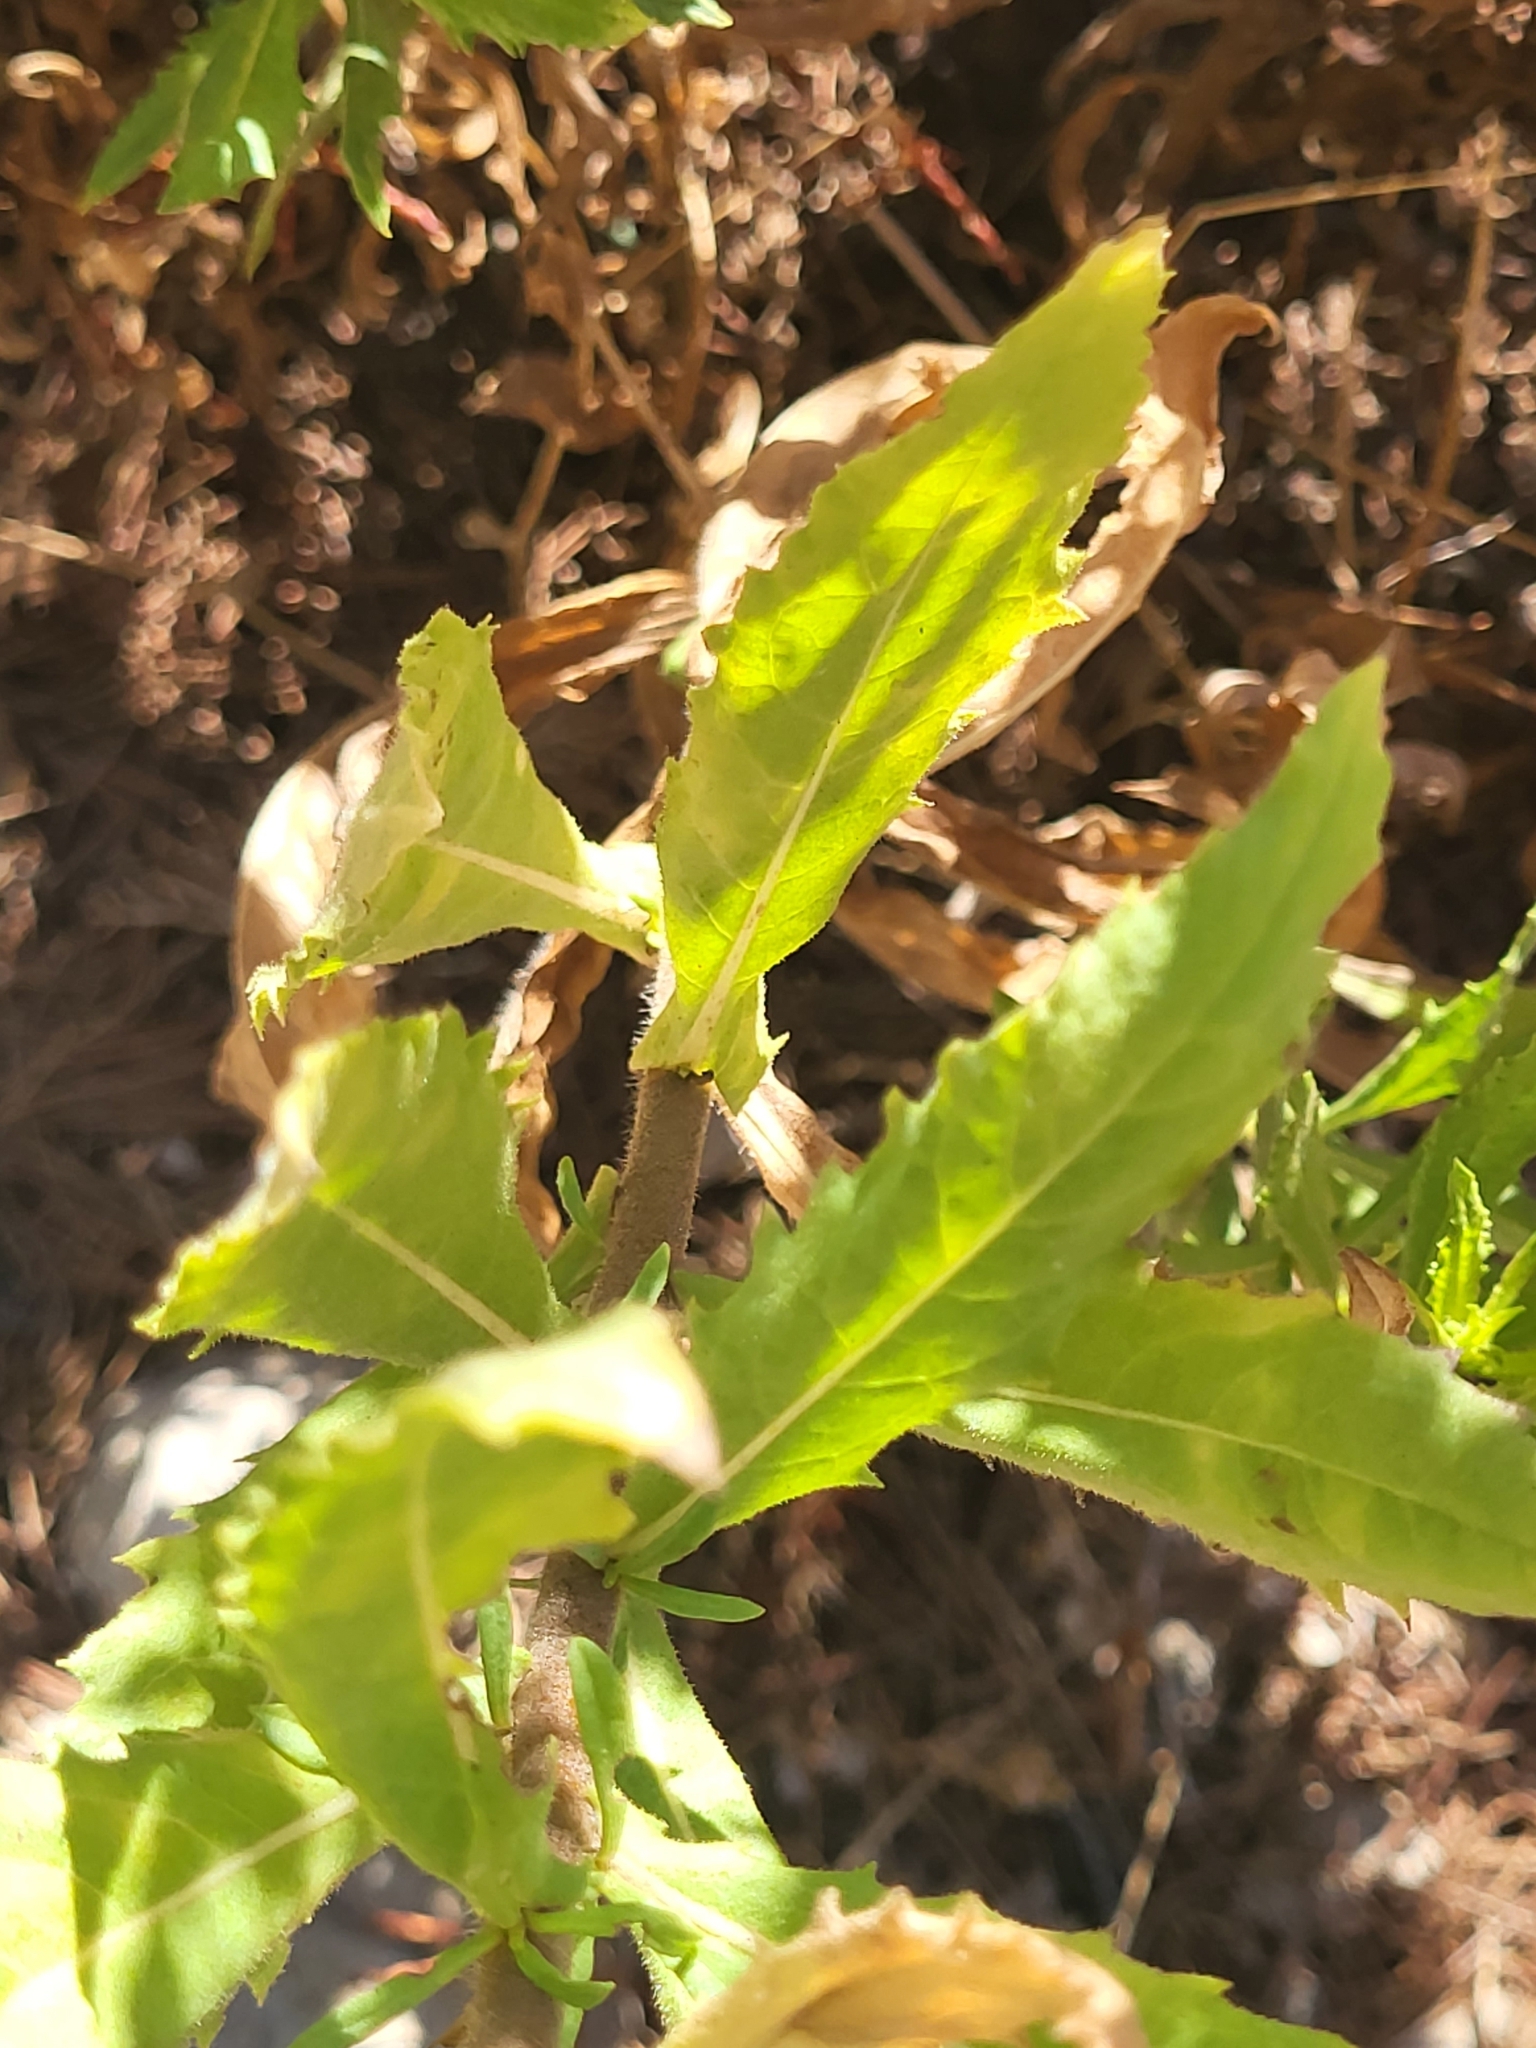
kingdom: Plantae
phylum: Tracheophyta
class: Magnoliopsida
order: Asterales
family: Asteraceae
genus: Dittrichia
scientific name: Dittrichia viscosa
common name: Woody fleabane
